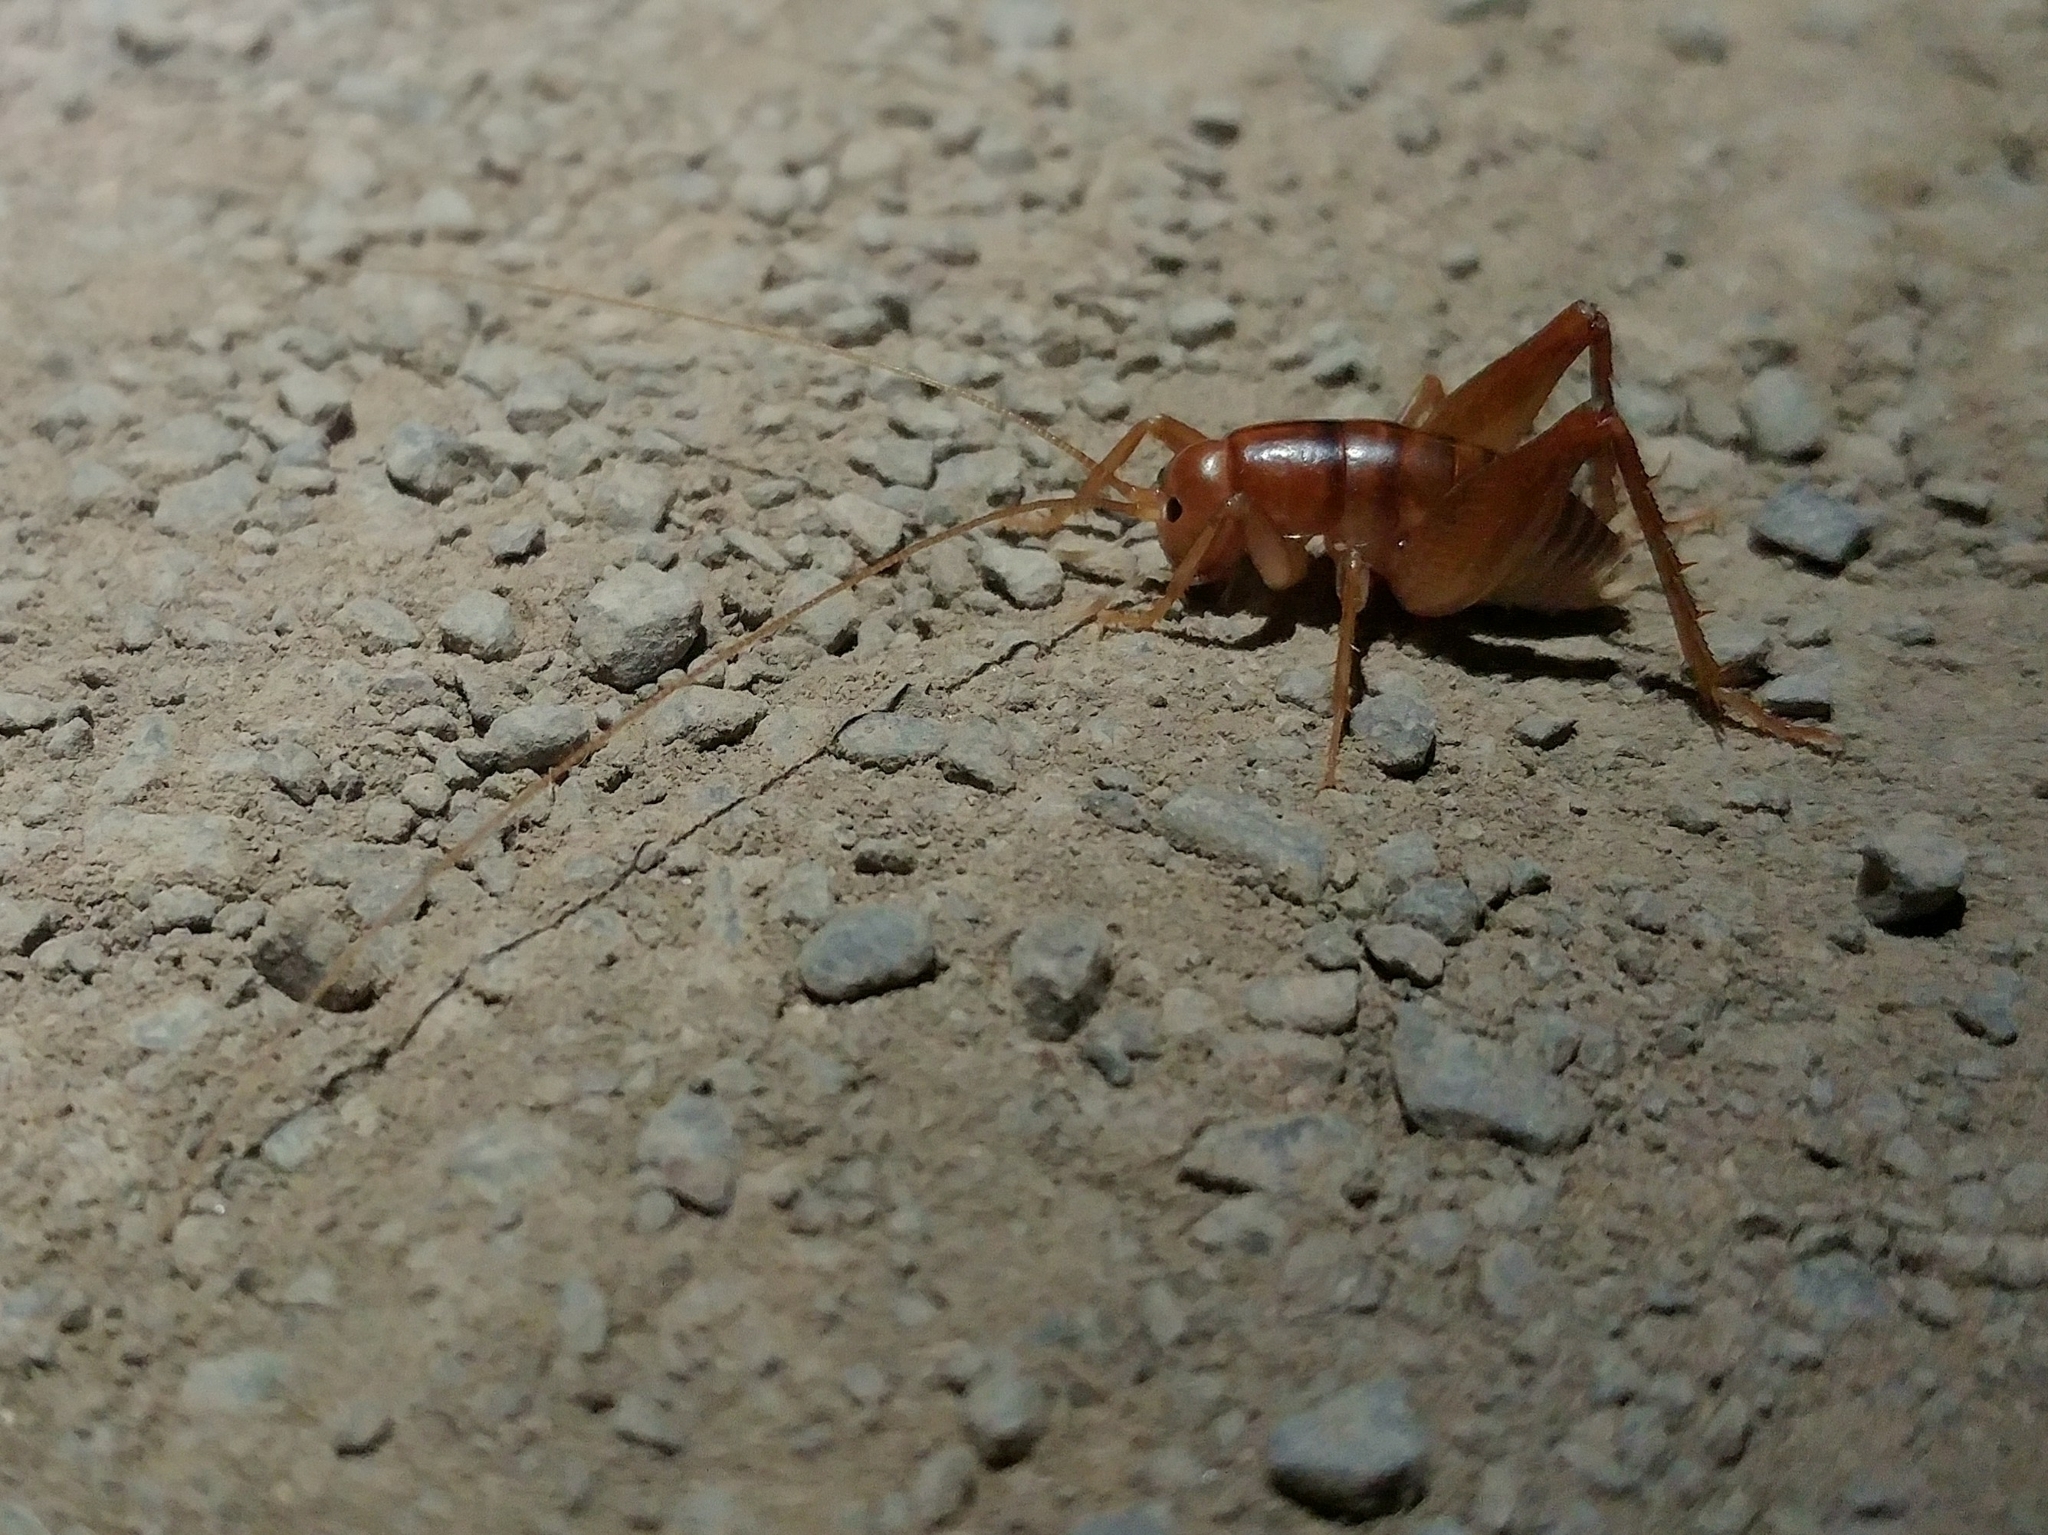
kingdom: Animalia
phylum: Arthropoda
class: Insecta
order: Orthoptera
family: Rhaphidophoridae
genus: Ceuthophilus
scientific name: Ceuthophilus californianus
